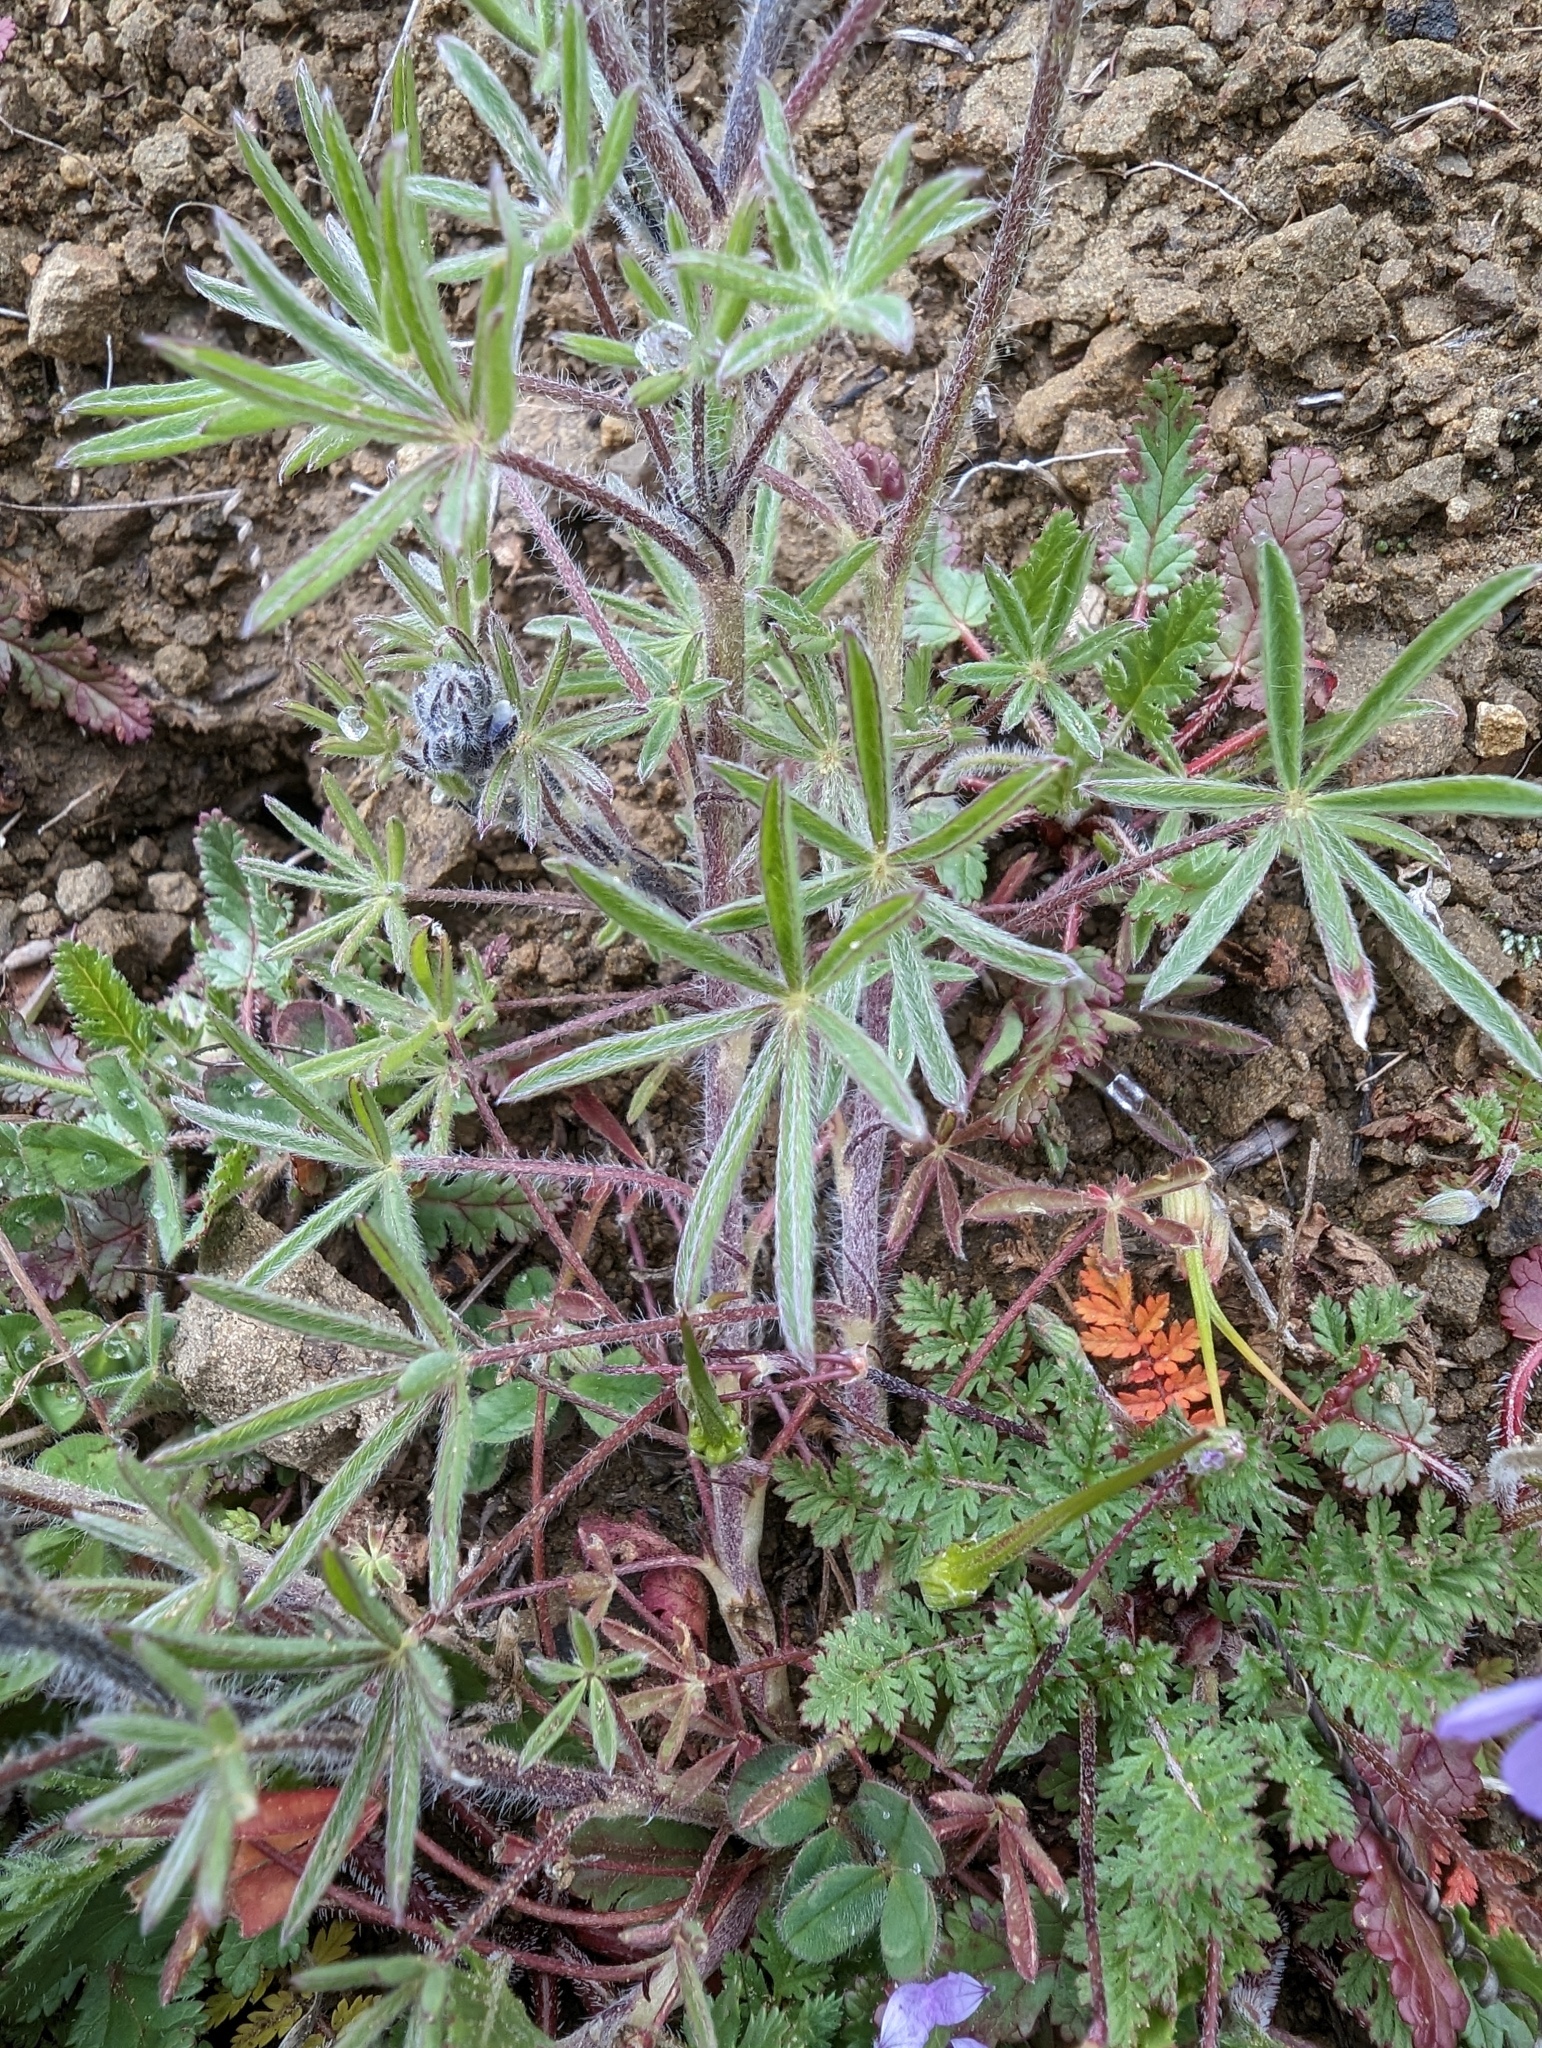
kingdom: Plantae
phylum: Tracheophyta
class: Magnoliopsida
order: Fabales
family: Fabaceae
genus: Lupinus
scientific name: Lupinus bicolor
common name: Miniature lupine
